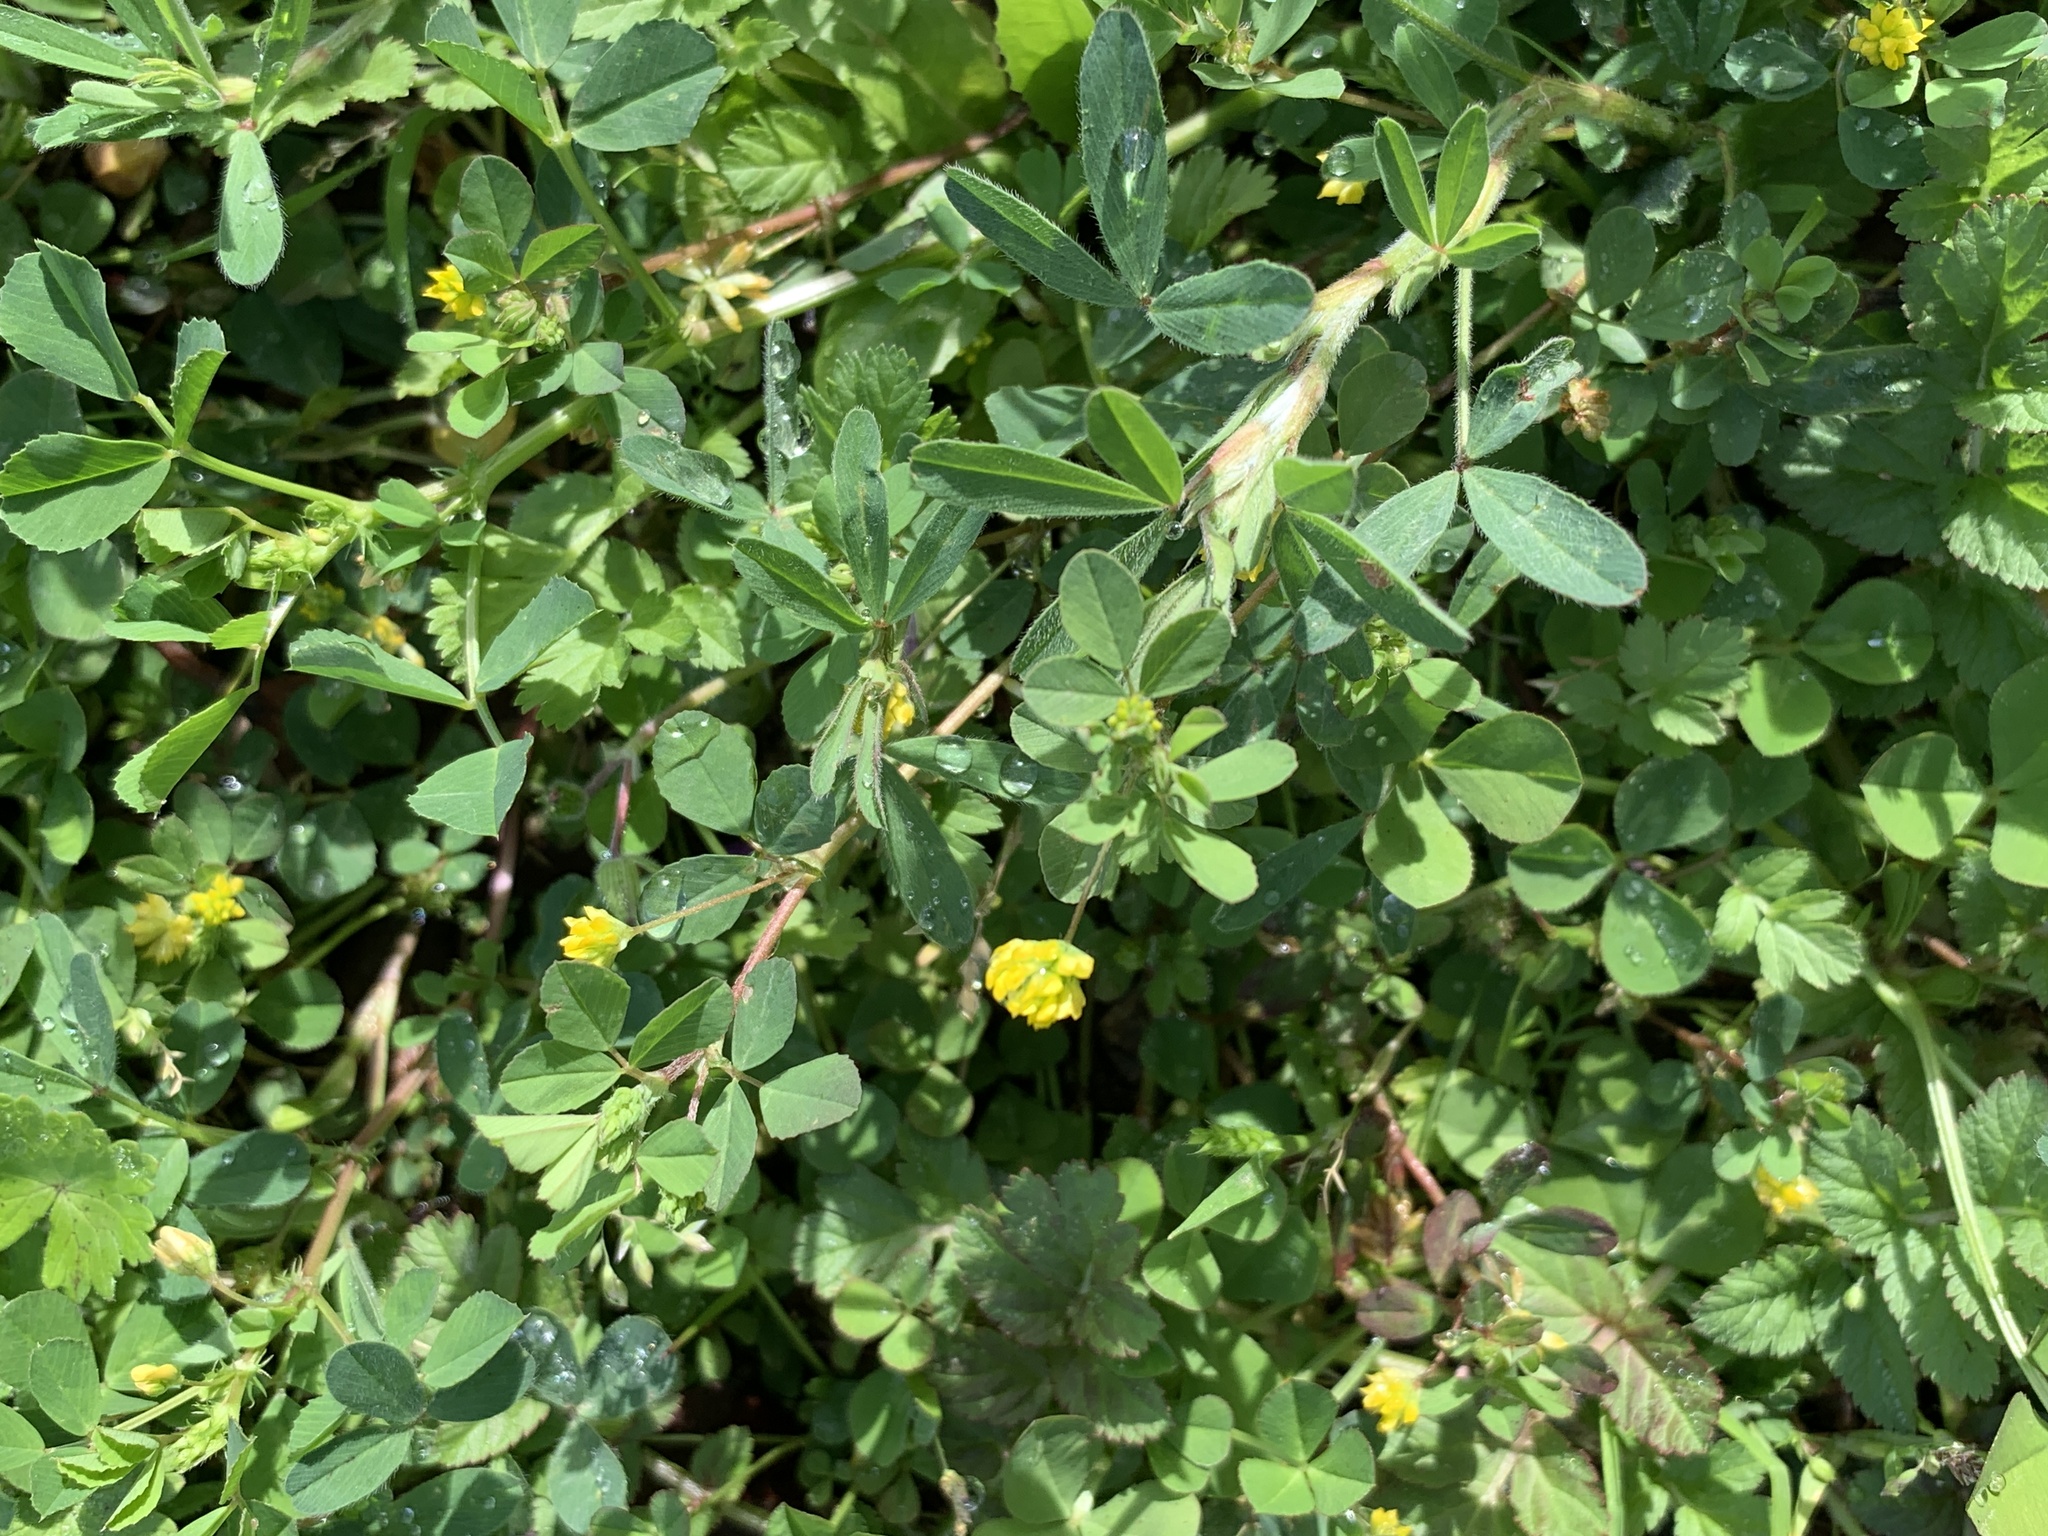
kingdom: Plantae
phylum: Tracheophyta
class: Magnoliopsida
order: Fabales
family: Fabaceae
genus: Trifolium
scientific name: Trifolium dubium
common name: Suckling clover
